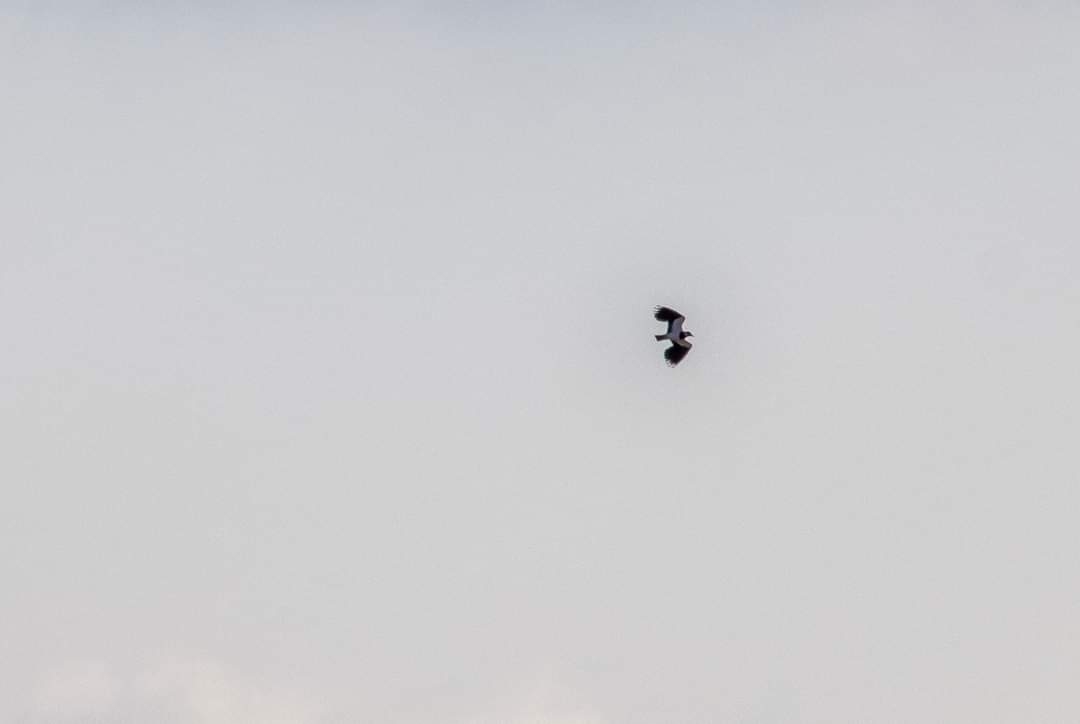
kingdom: Animalia
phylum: Chordata
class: Aves
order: Charadriiformes
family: Charadriidae
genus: Vanellus
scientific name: Vanellus vanellus
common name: Northern lapwing
